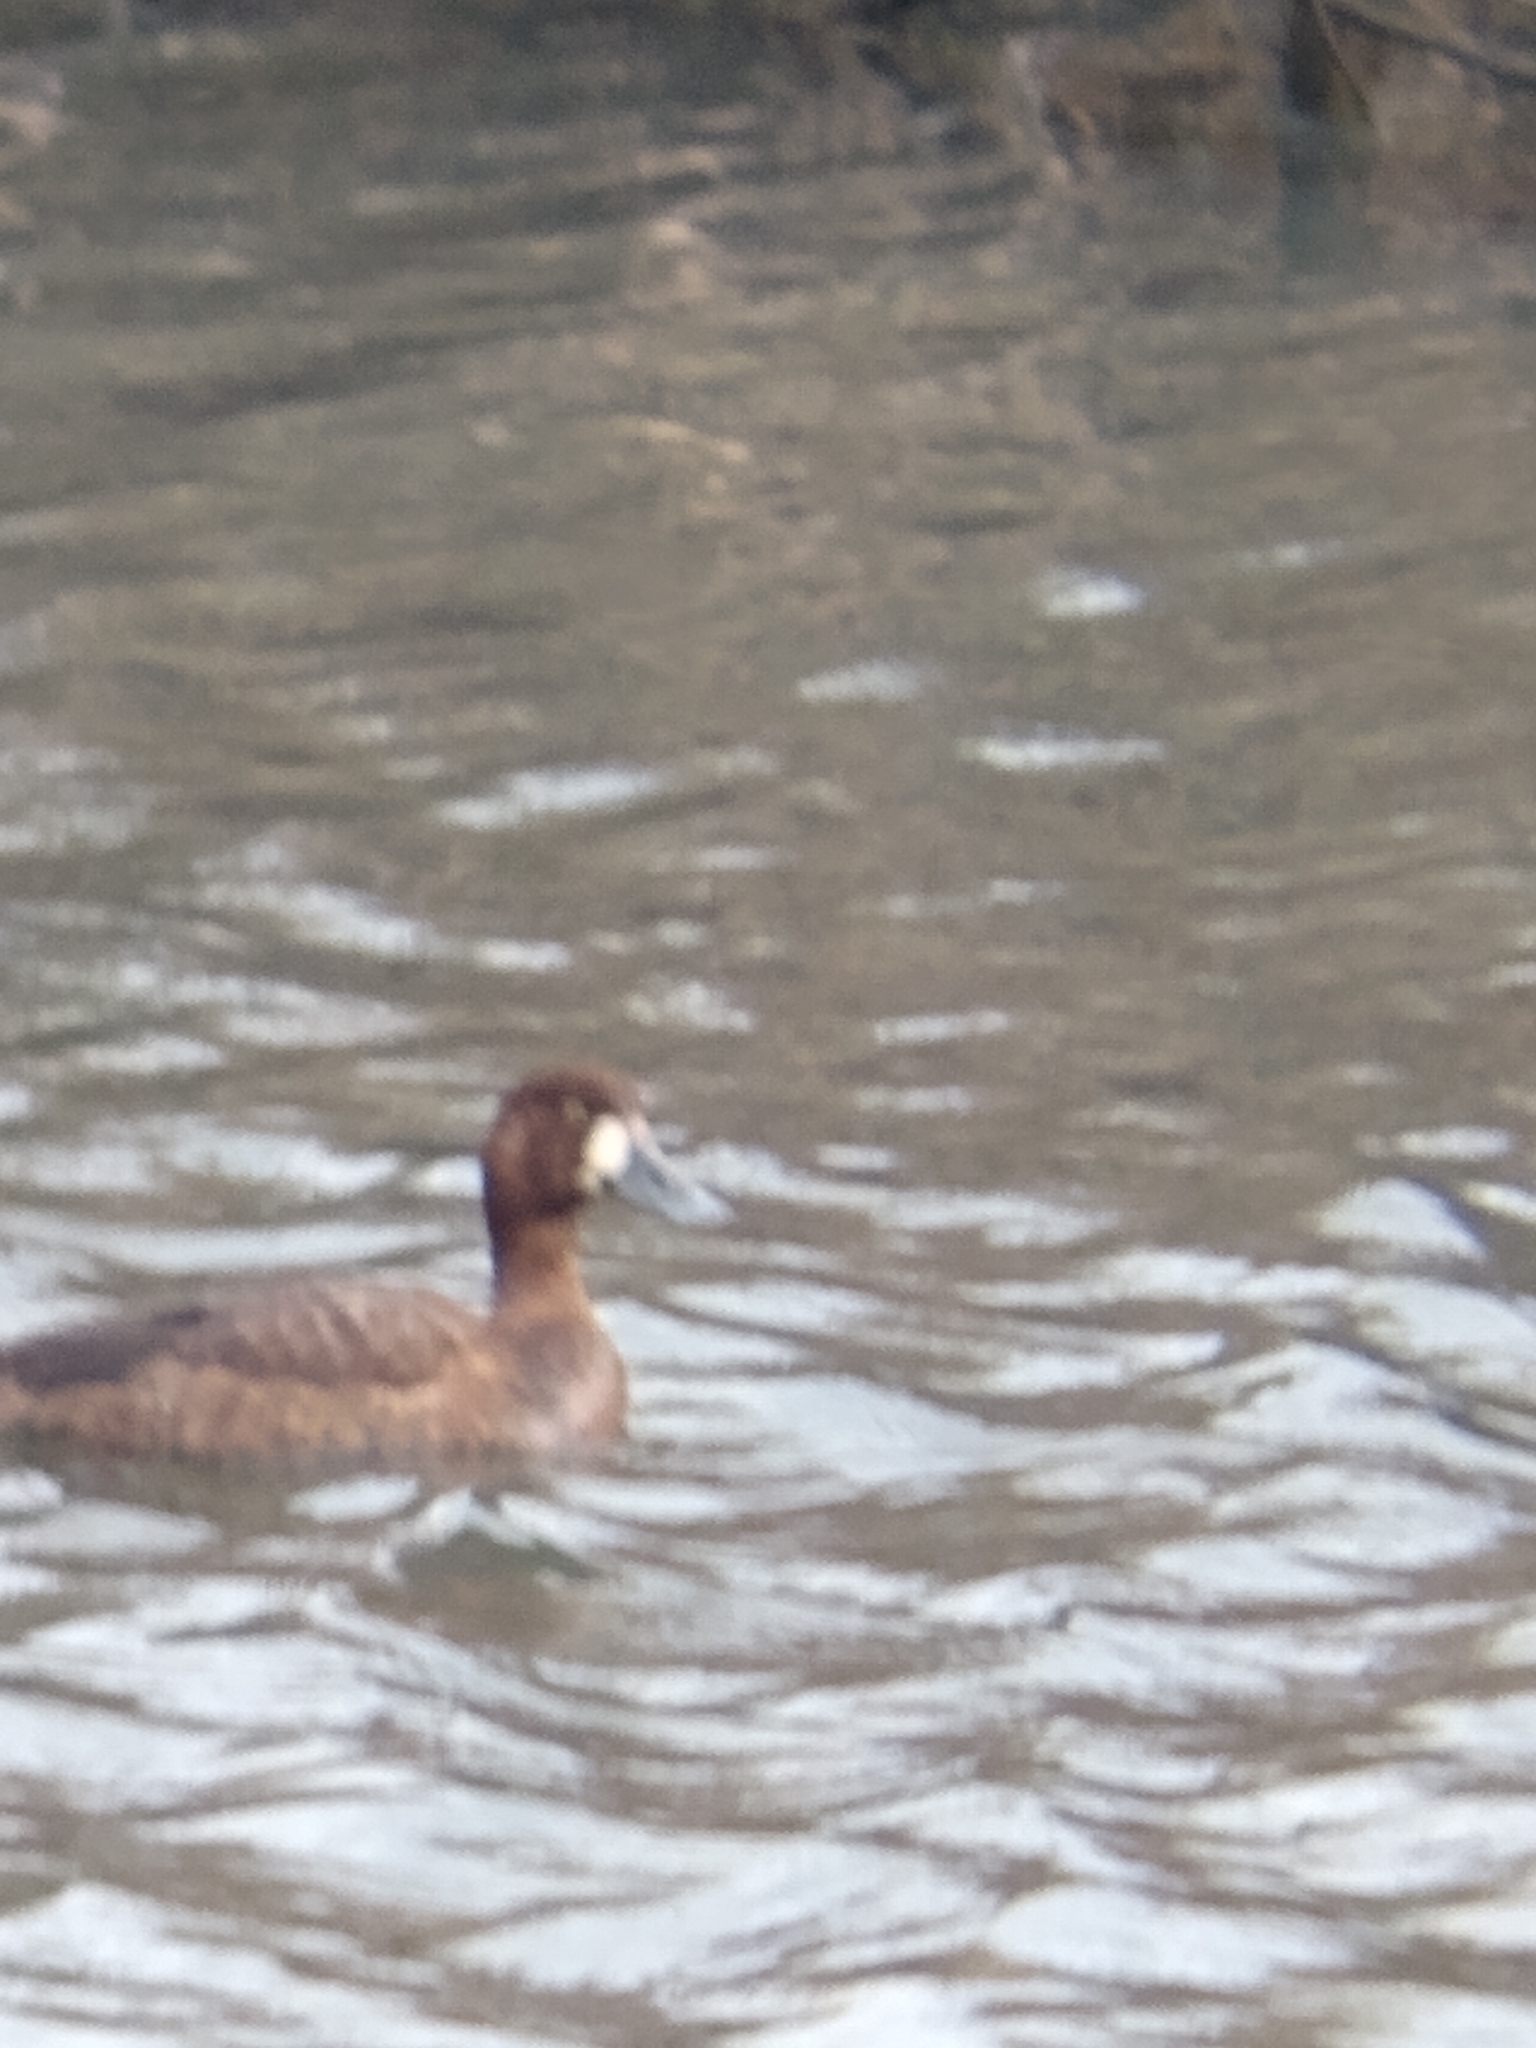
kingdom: Animalia
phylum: Chordata
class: Aves
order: Anseriformes
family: Anatidae
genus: Aythya
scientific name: Aythya marila
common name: Greater scaup
